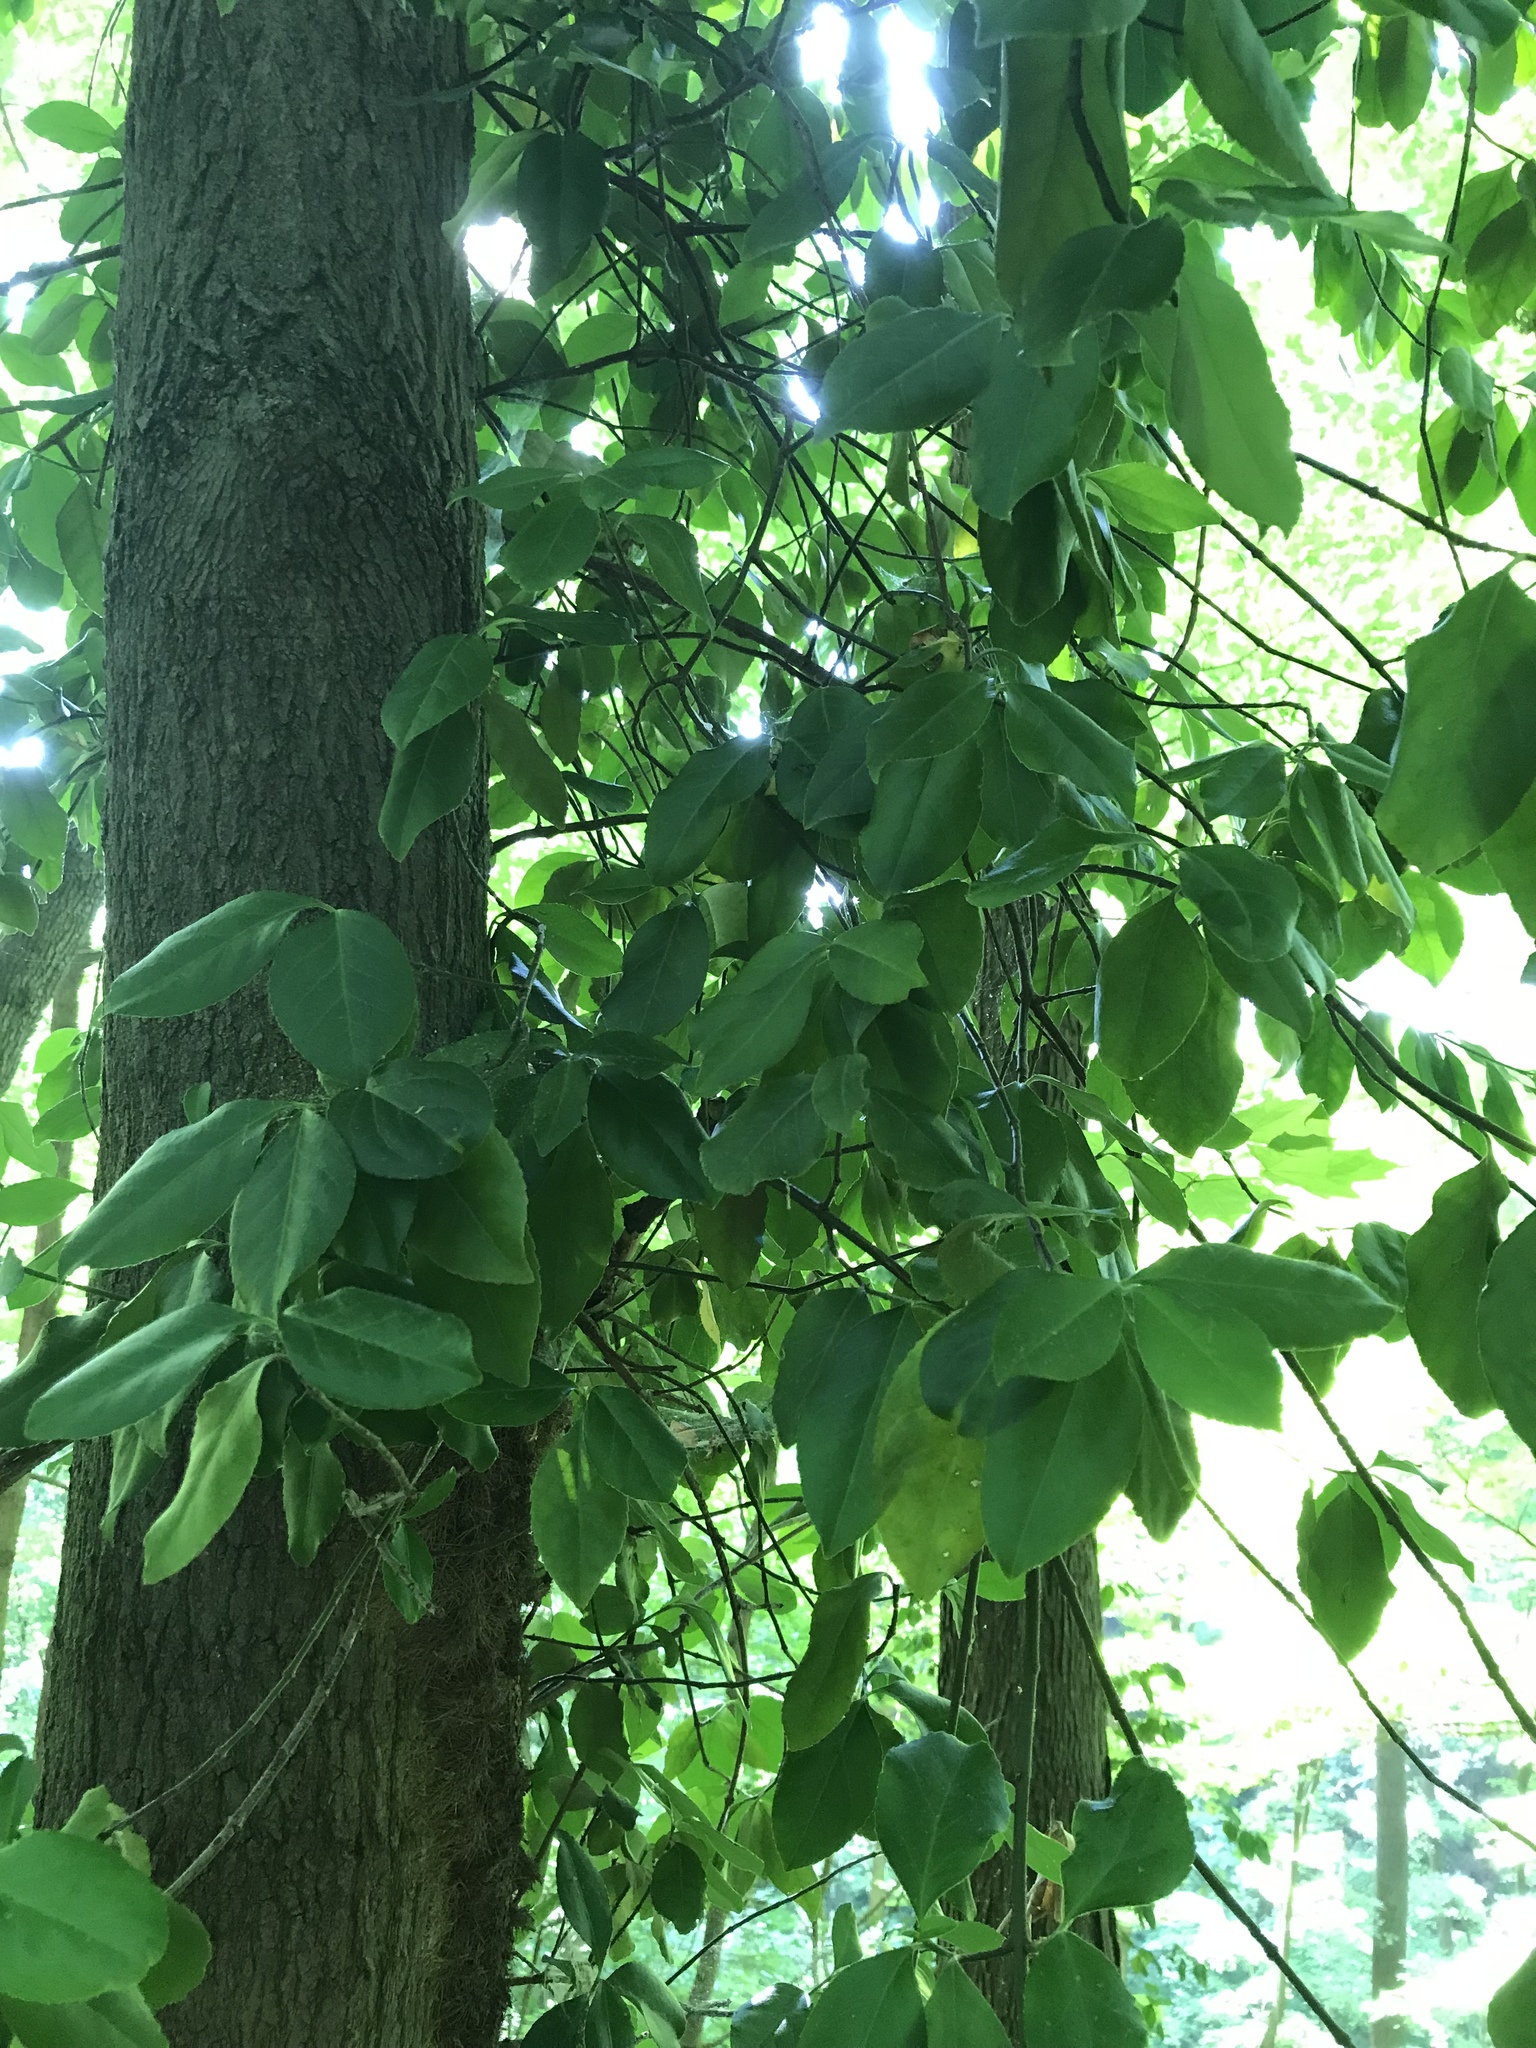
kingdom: Plantae
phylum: Tracheophyta
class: Magnoliopsida
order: Celastrales
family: Celastraceae
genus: Euonymus
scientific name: Euonymus fortunei
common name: Climbing euonymus
